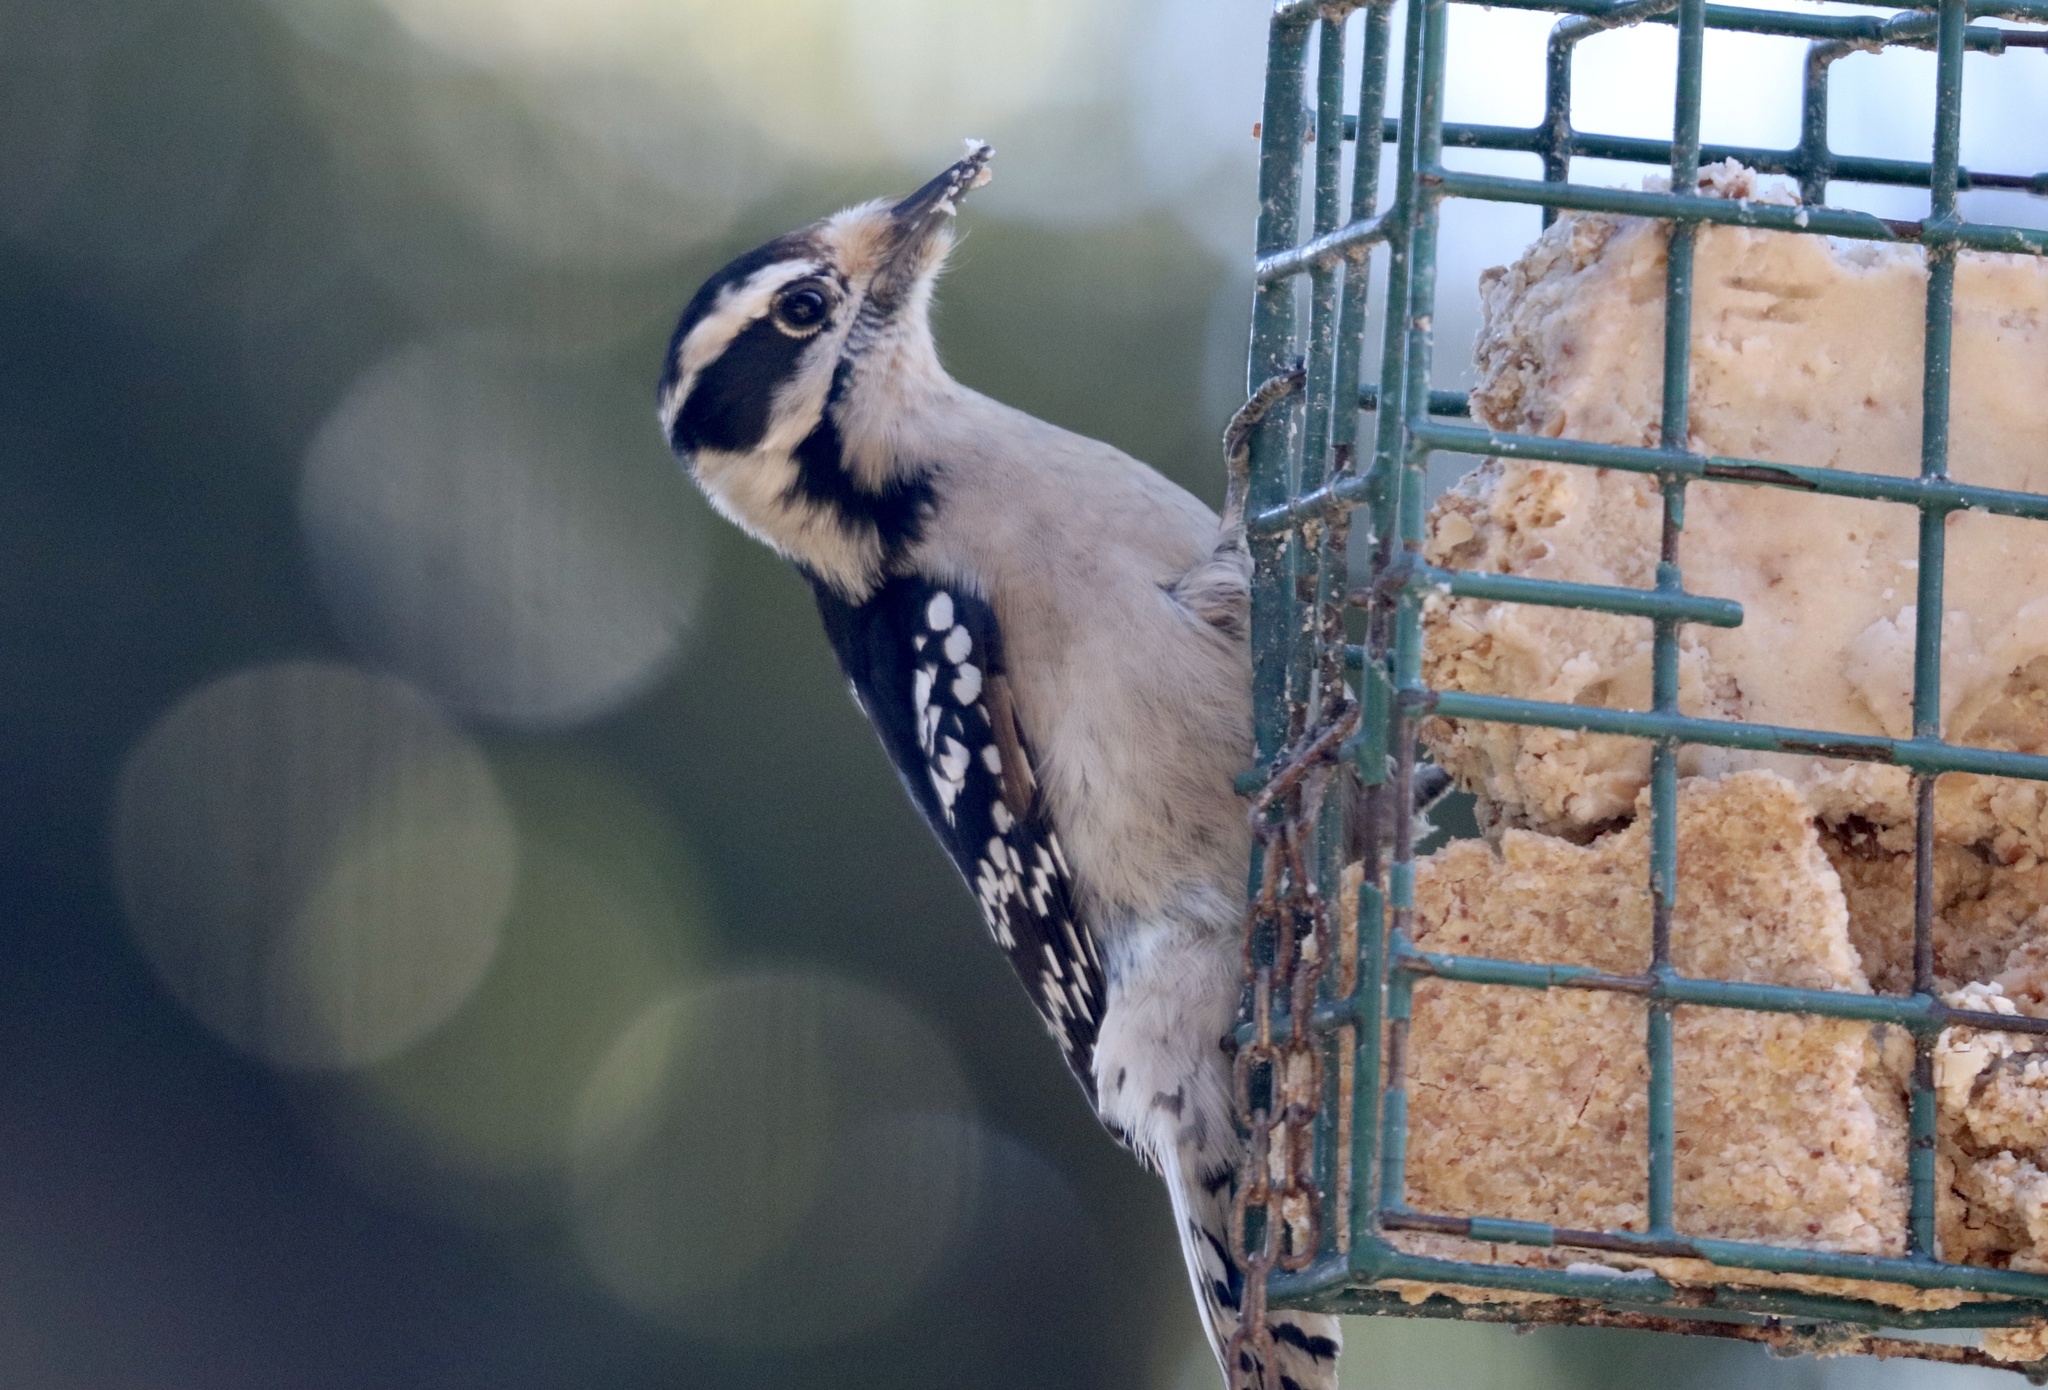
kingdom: Animalia
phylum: Chordata
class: Aves
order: Piciformes
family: Picidae
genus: Dryobates
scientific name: Dryobates pubescens
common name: Downy woodpecker
